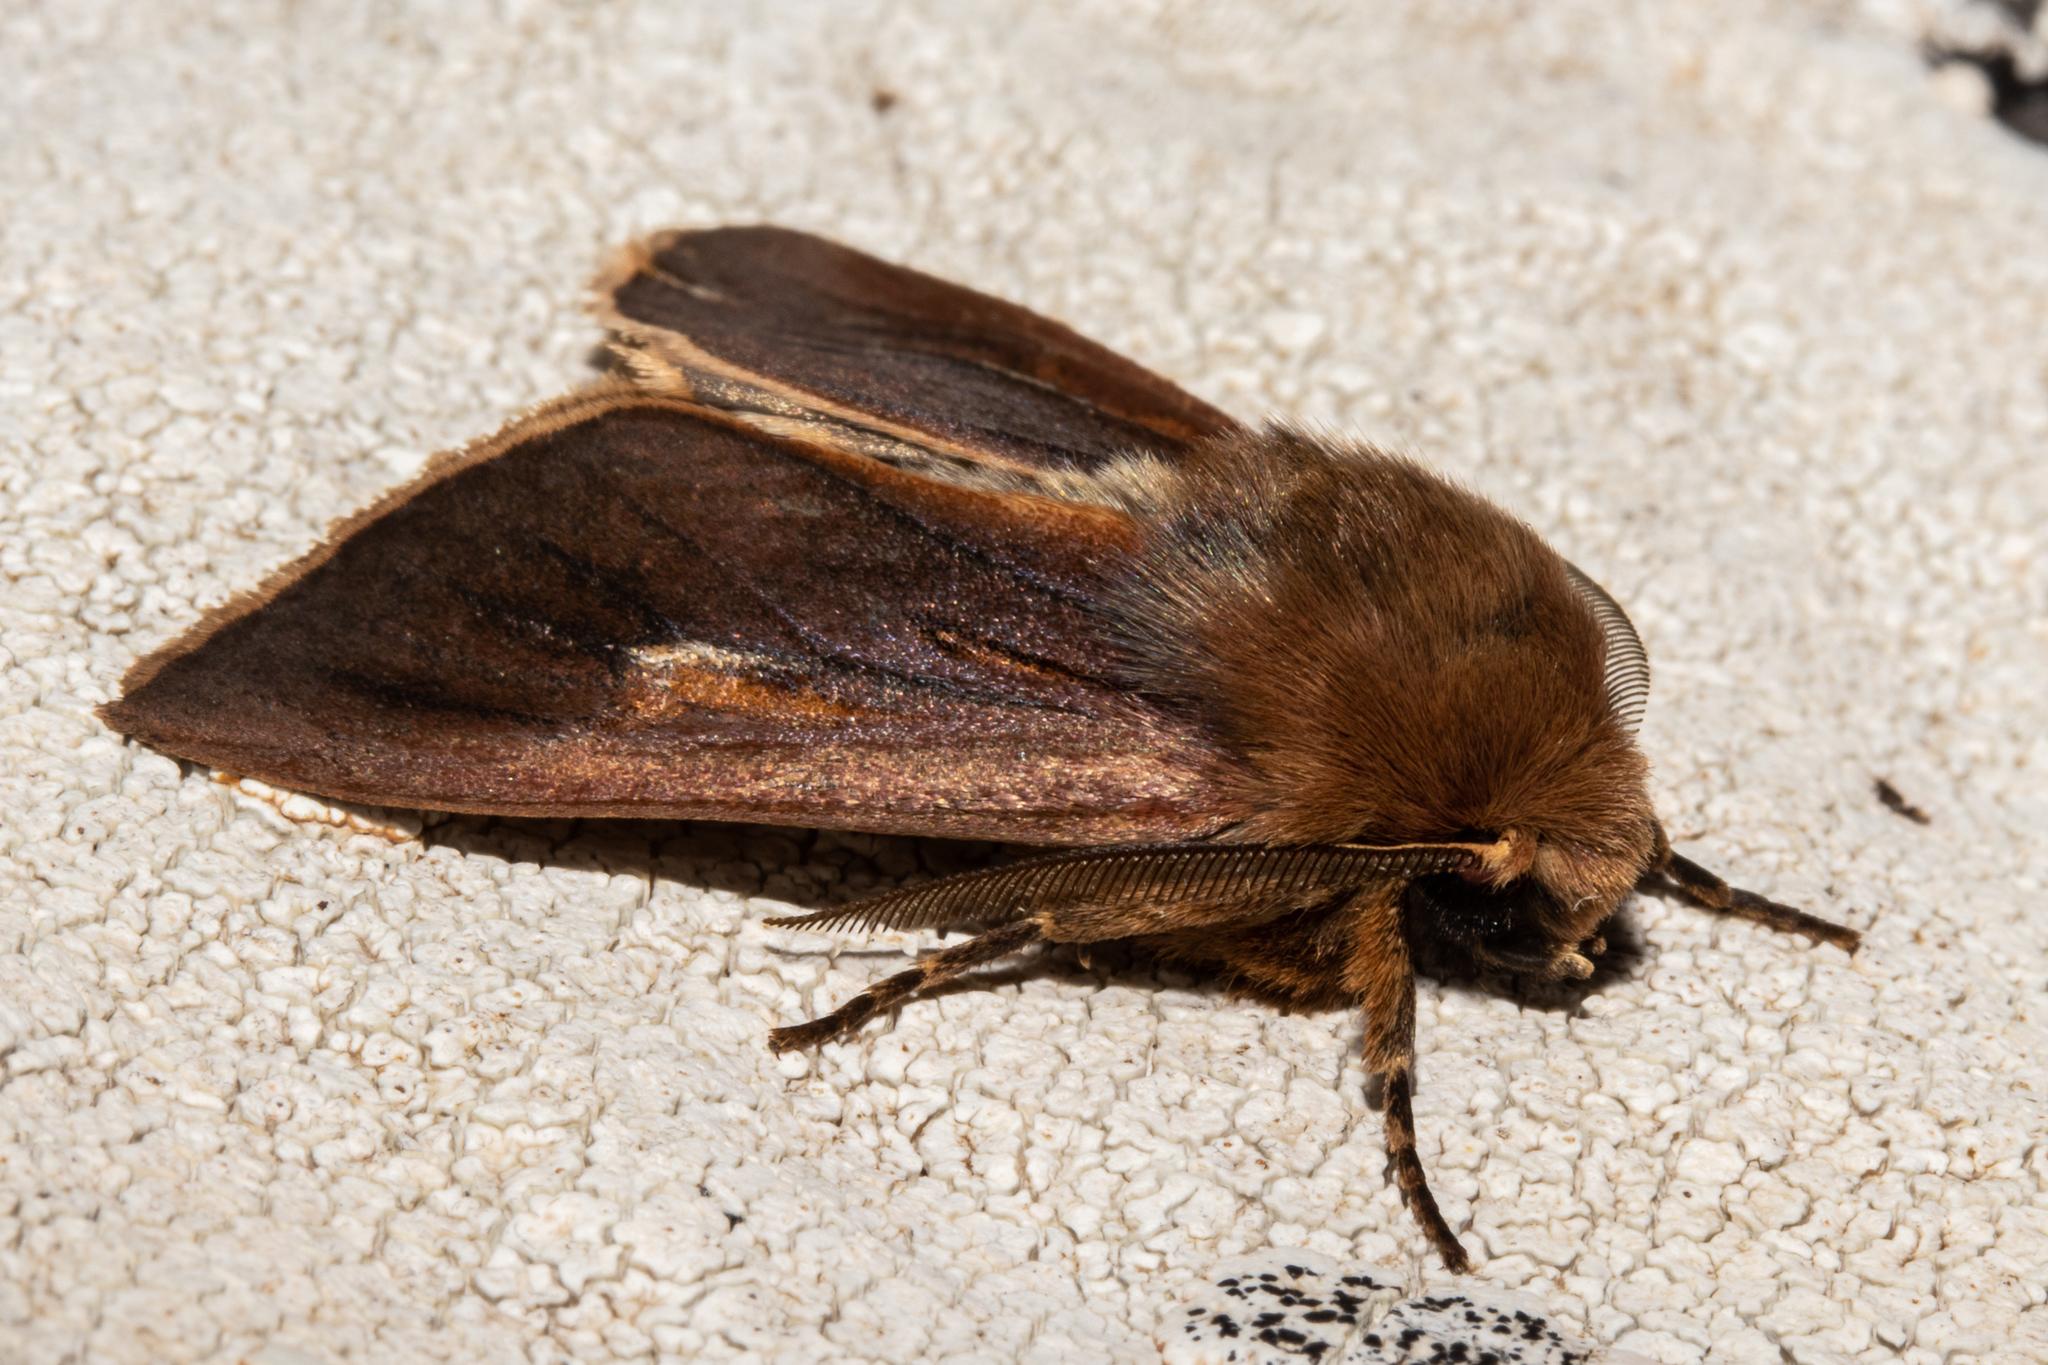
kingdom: Animalia
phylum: Arthropoda
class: Insecta
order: Lepidoptera
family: Noctuidae
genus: Ichneutica
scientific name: Ichneutica dione
